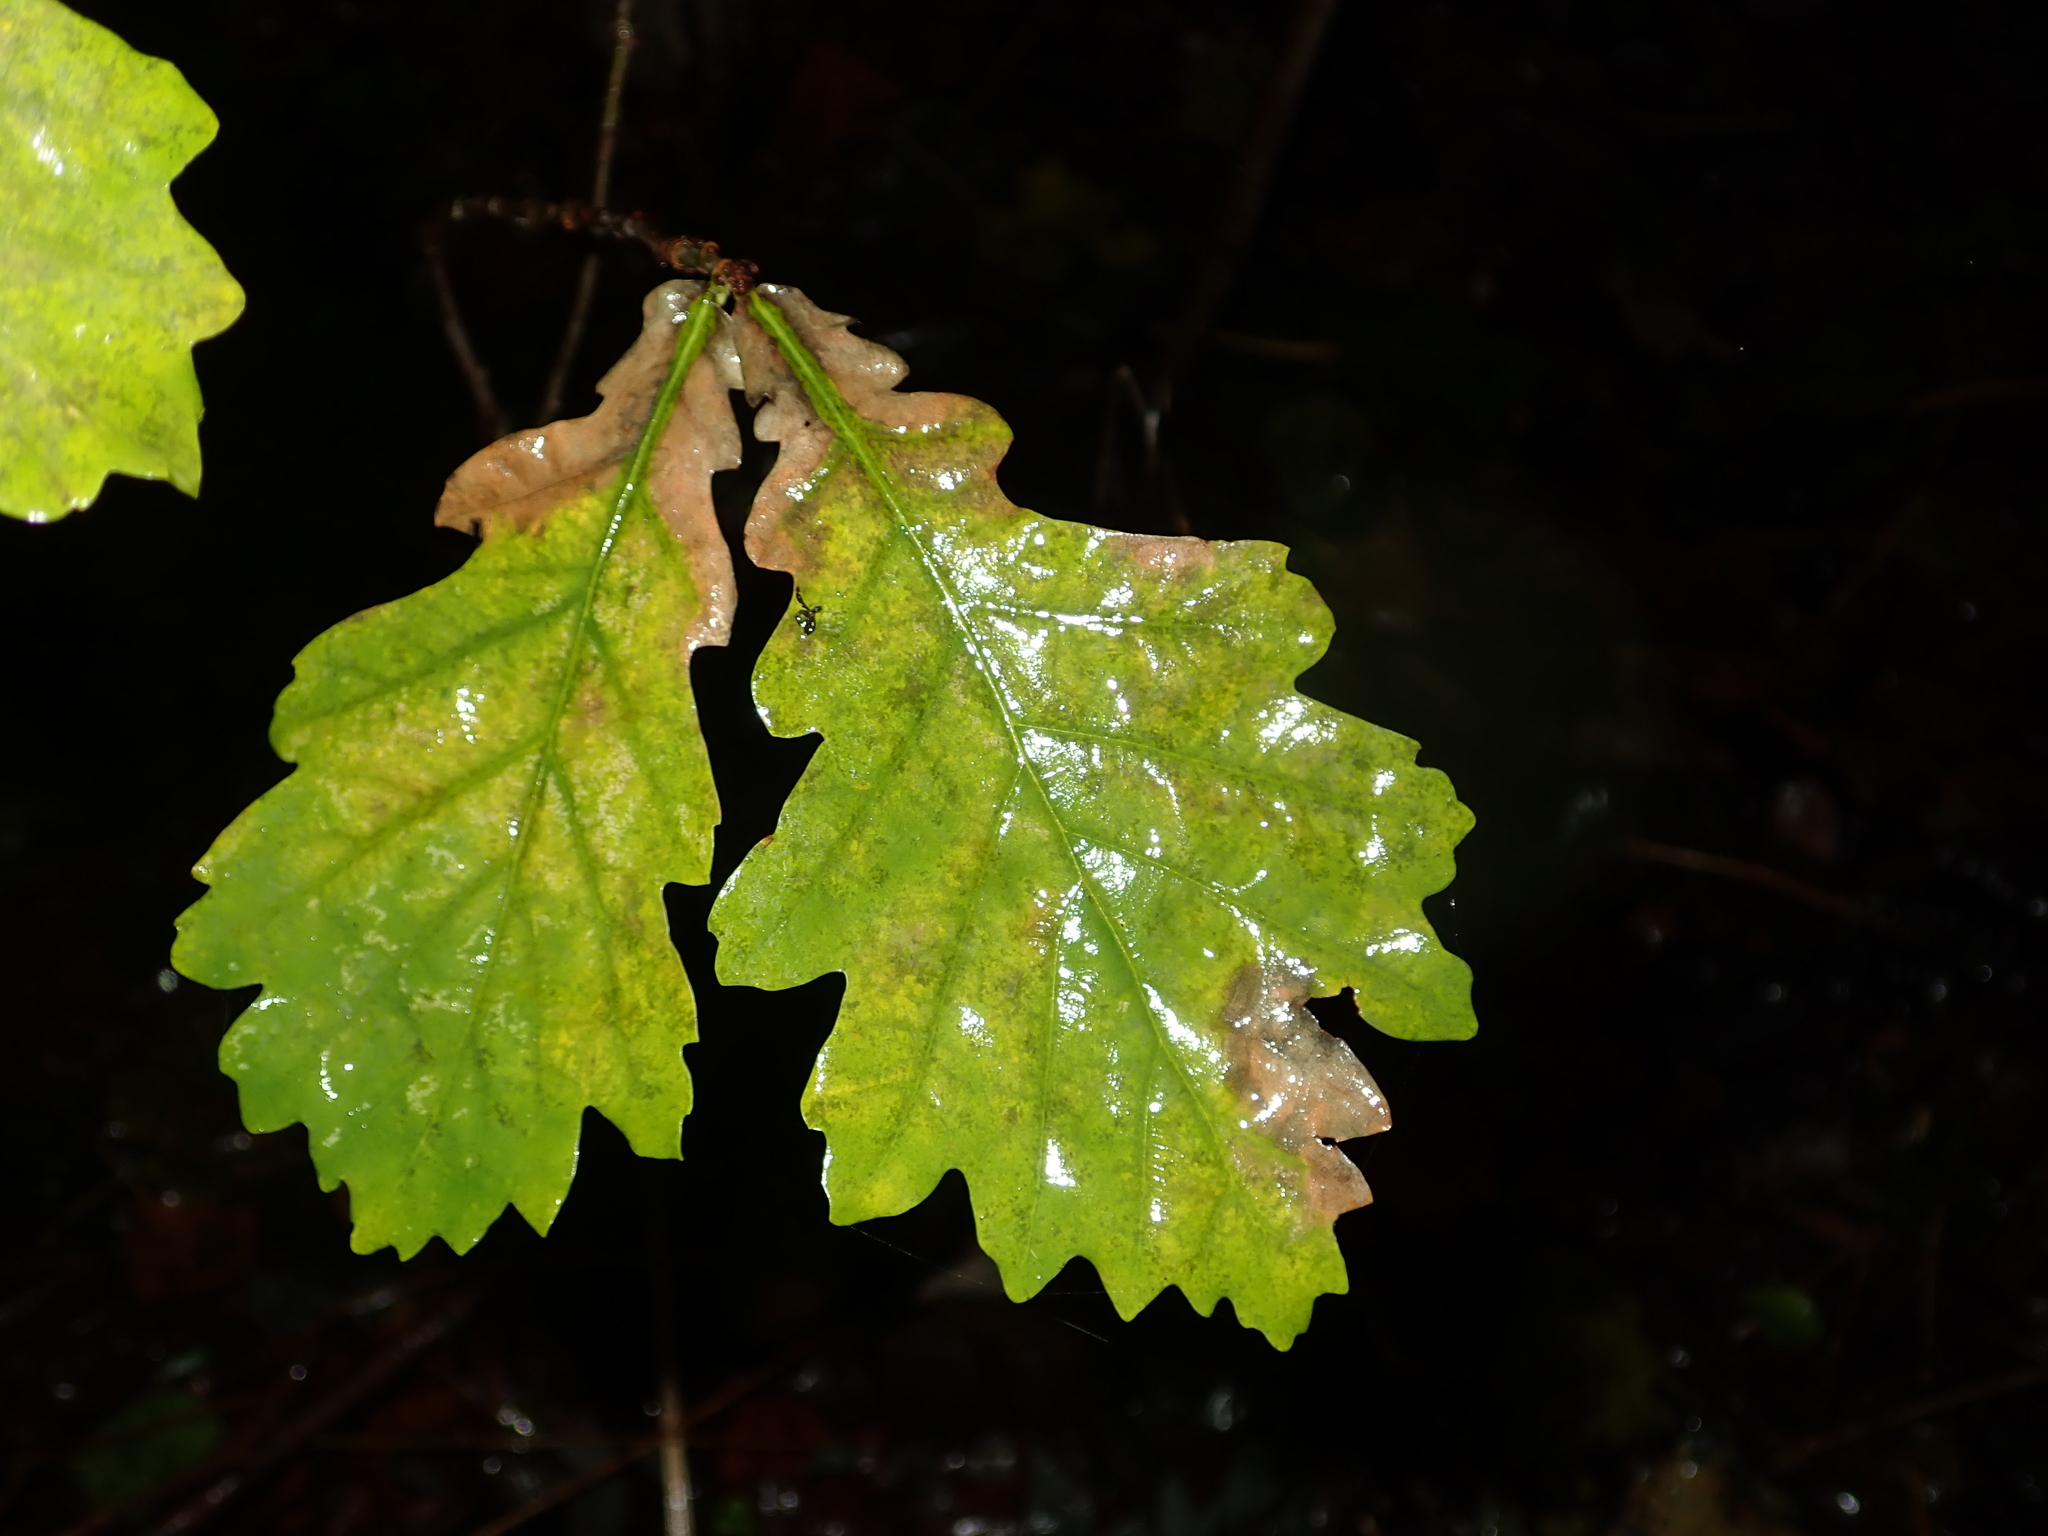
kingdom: Plantae
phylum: Tracheophyta
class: Magnoliopsida
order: Fagales
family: Fagaceae
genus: Quercus
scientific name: Quercus robur
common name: Pedunculate oak
